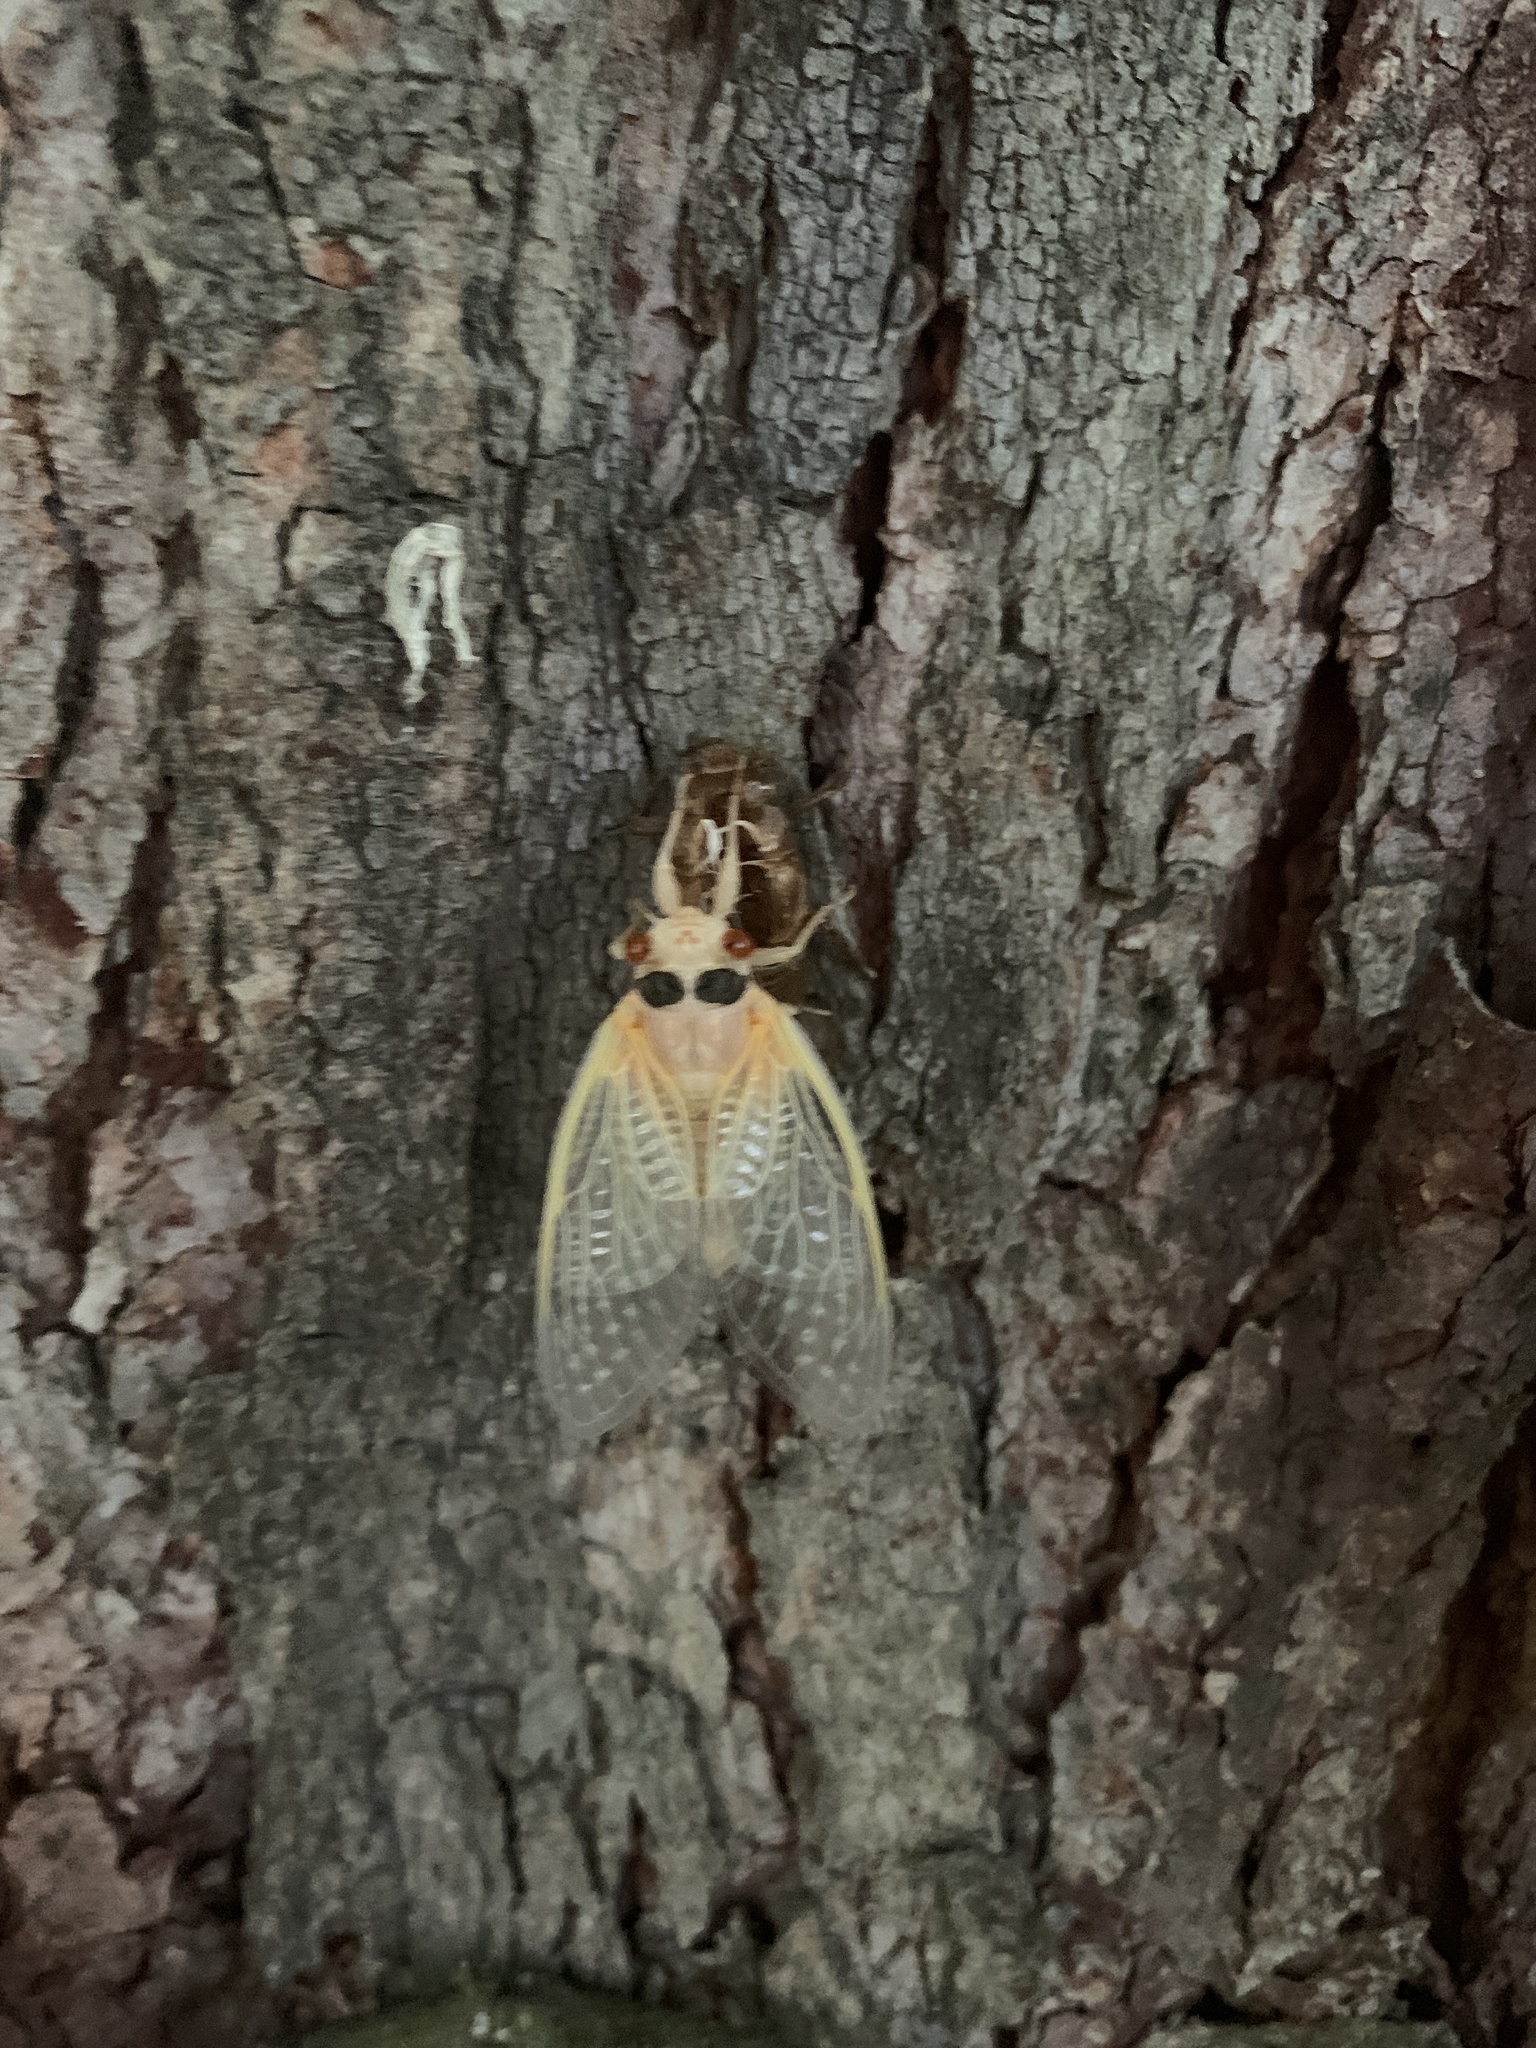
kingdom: Animalia
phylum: Arthropoda
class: Insecta
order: Hemiptera
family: Cicadidae
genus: Magicicada
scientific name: Magicicada
